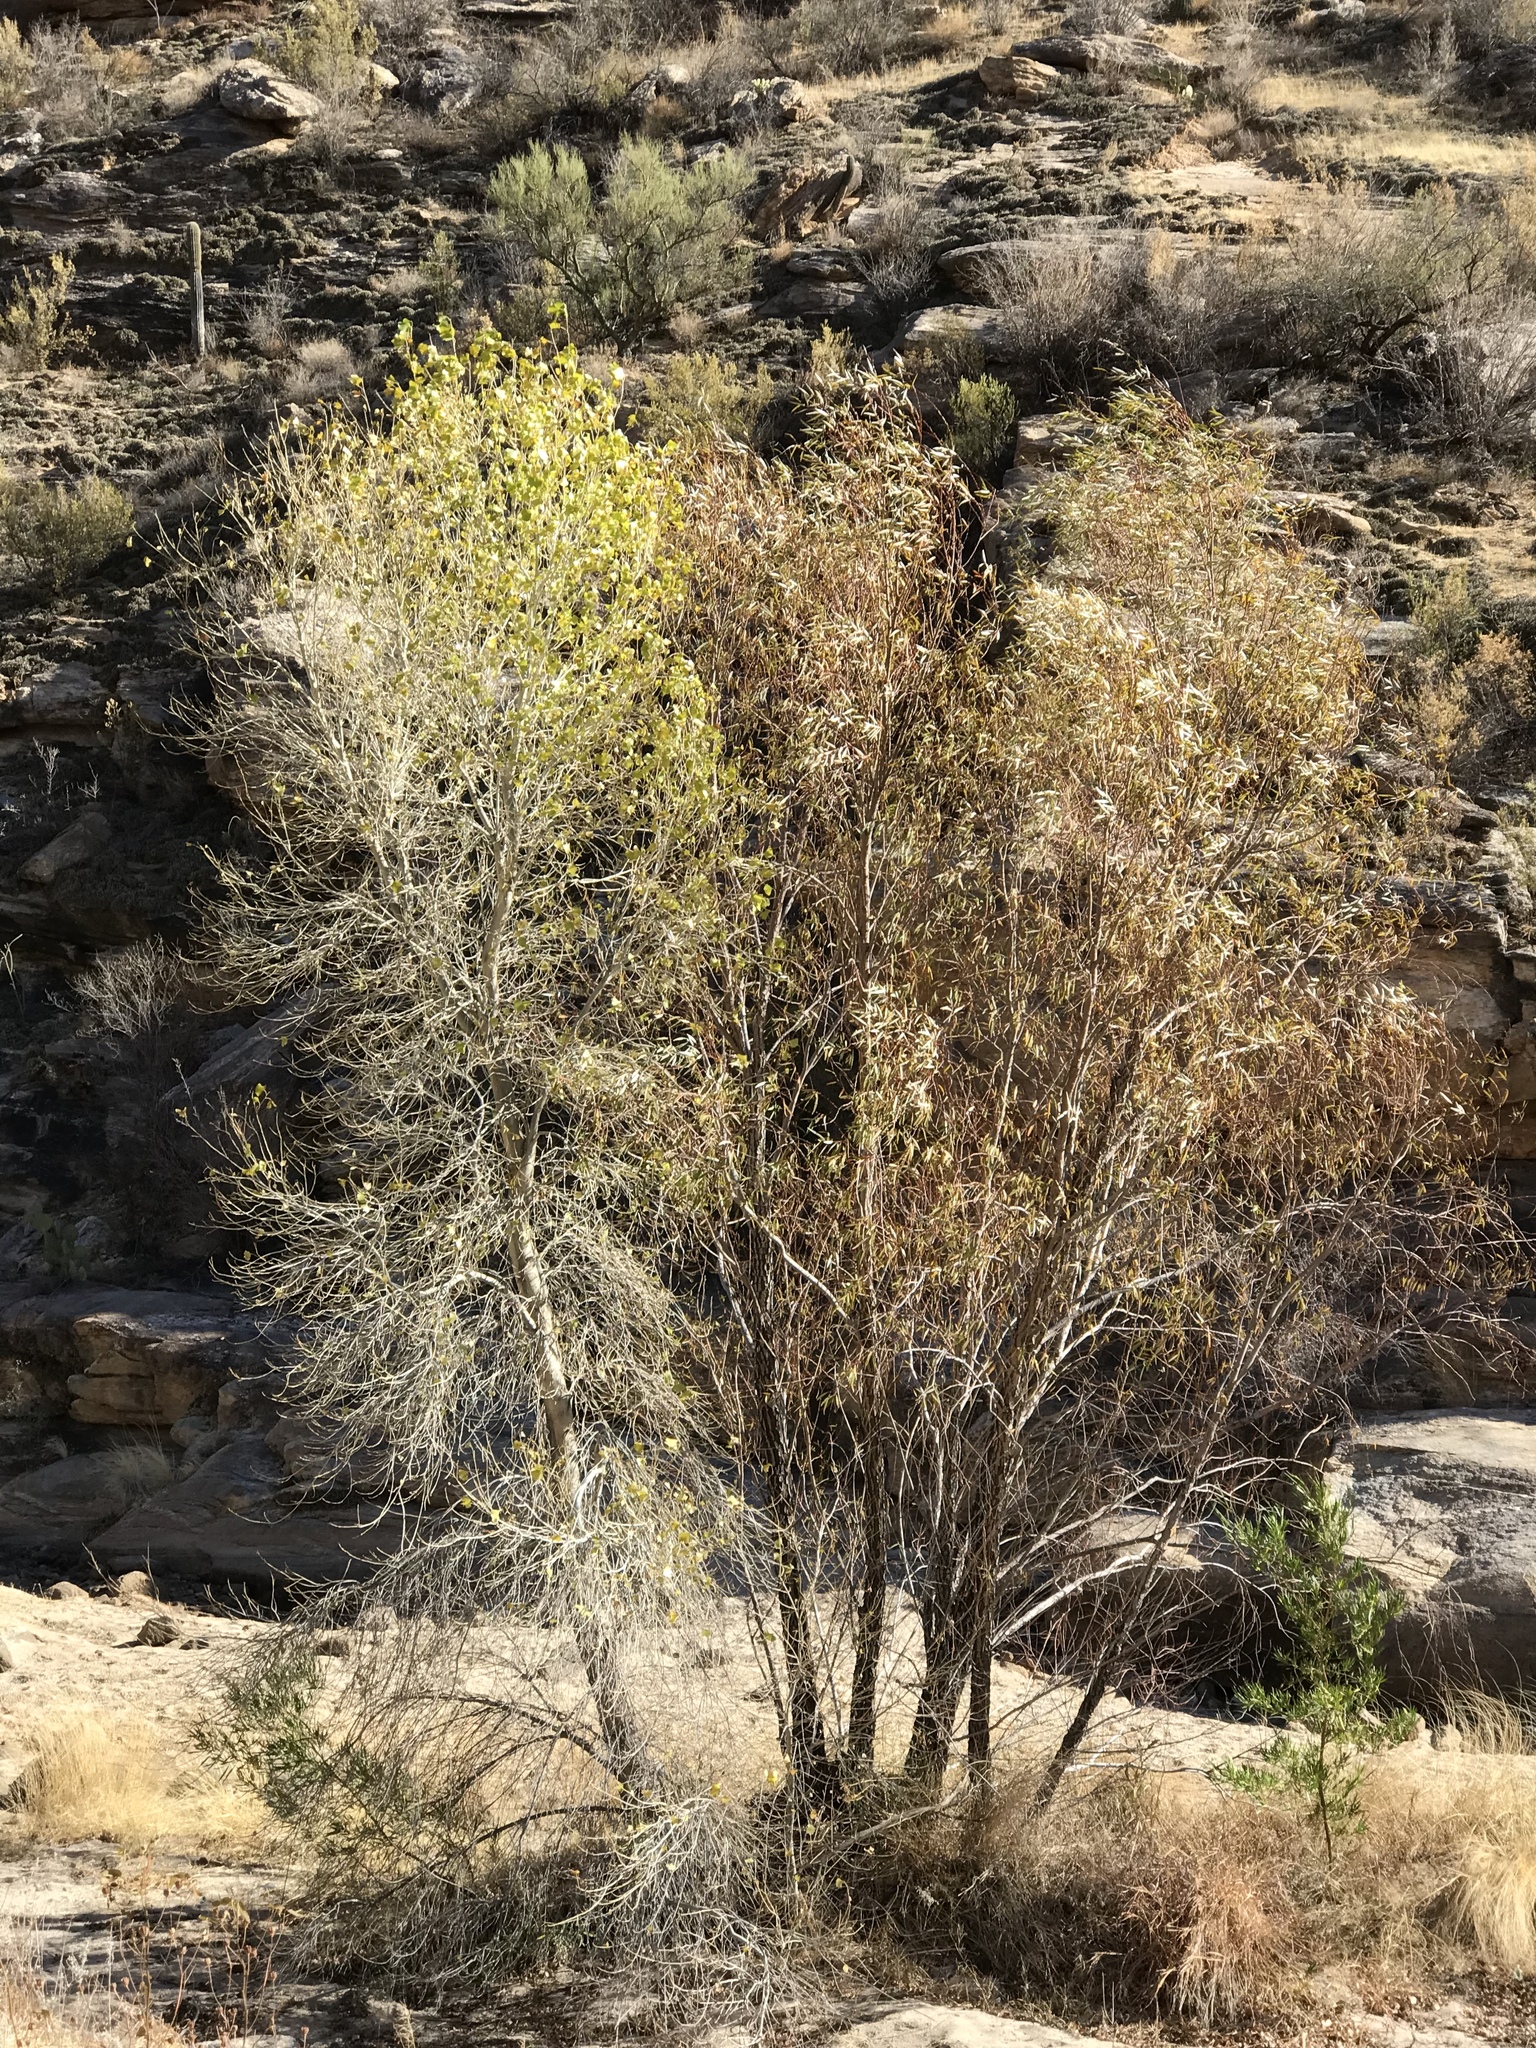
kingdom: Plantae
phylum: Tracheophyta
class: Magnoliopsida
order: Malpighiales
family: Salicaceae
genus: Populus
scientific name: Populus fremontii
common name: Fremont's cottonwood
